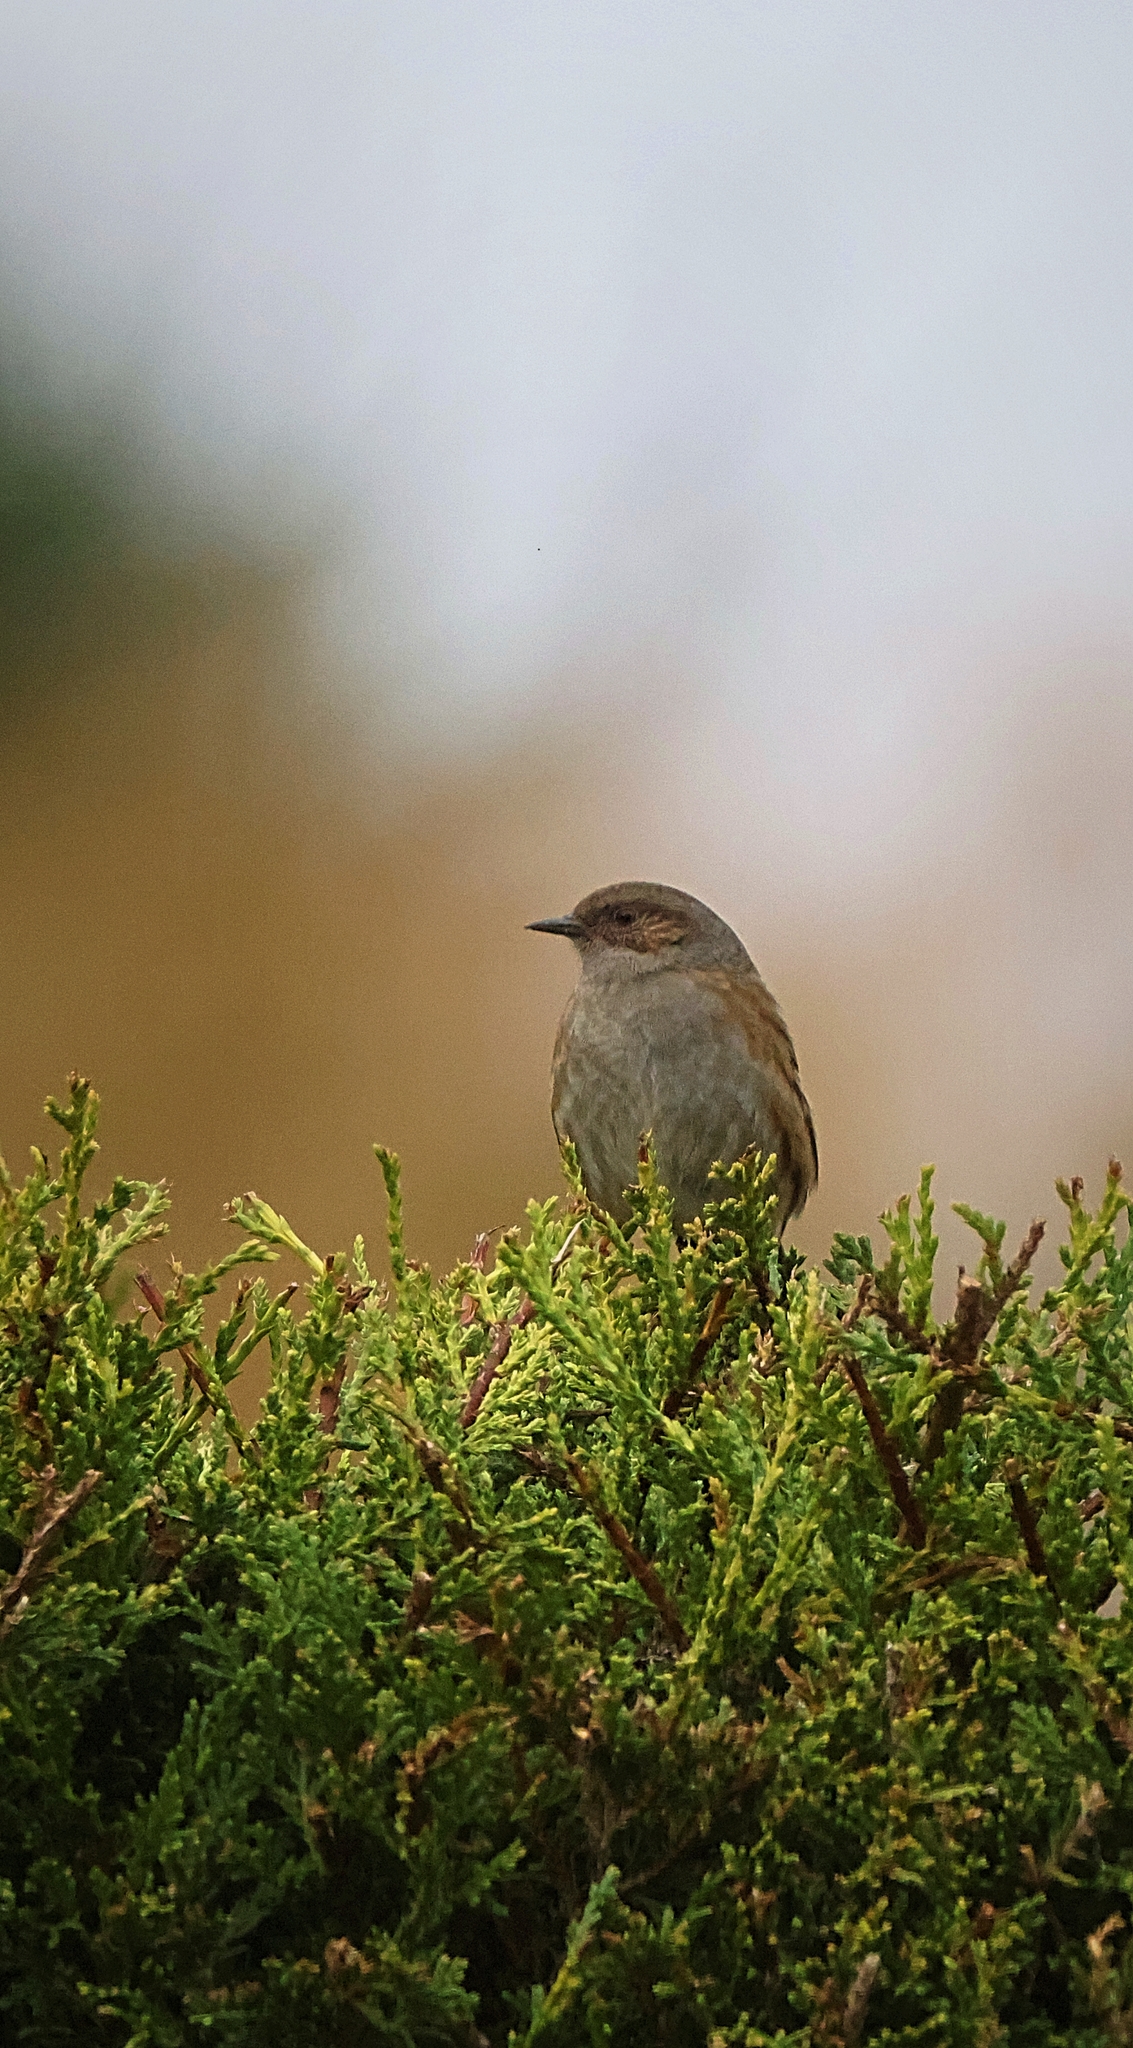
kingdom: Animalia
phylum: Chordata
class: Aves
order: Passeriformes
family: Prunellidae
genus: Prunella
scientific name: Prunella modularis
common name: Dunnock
